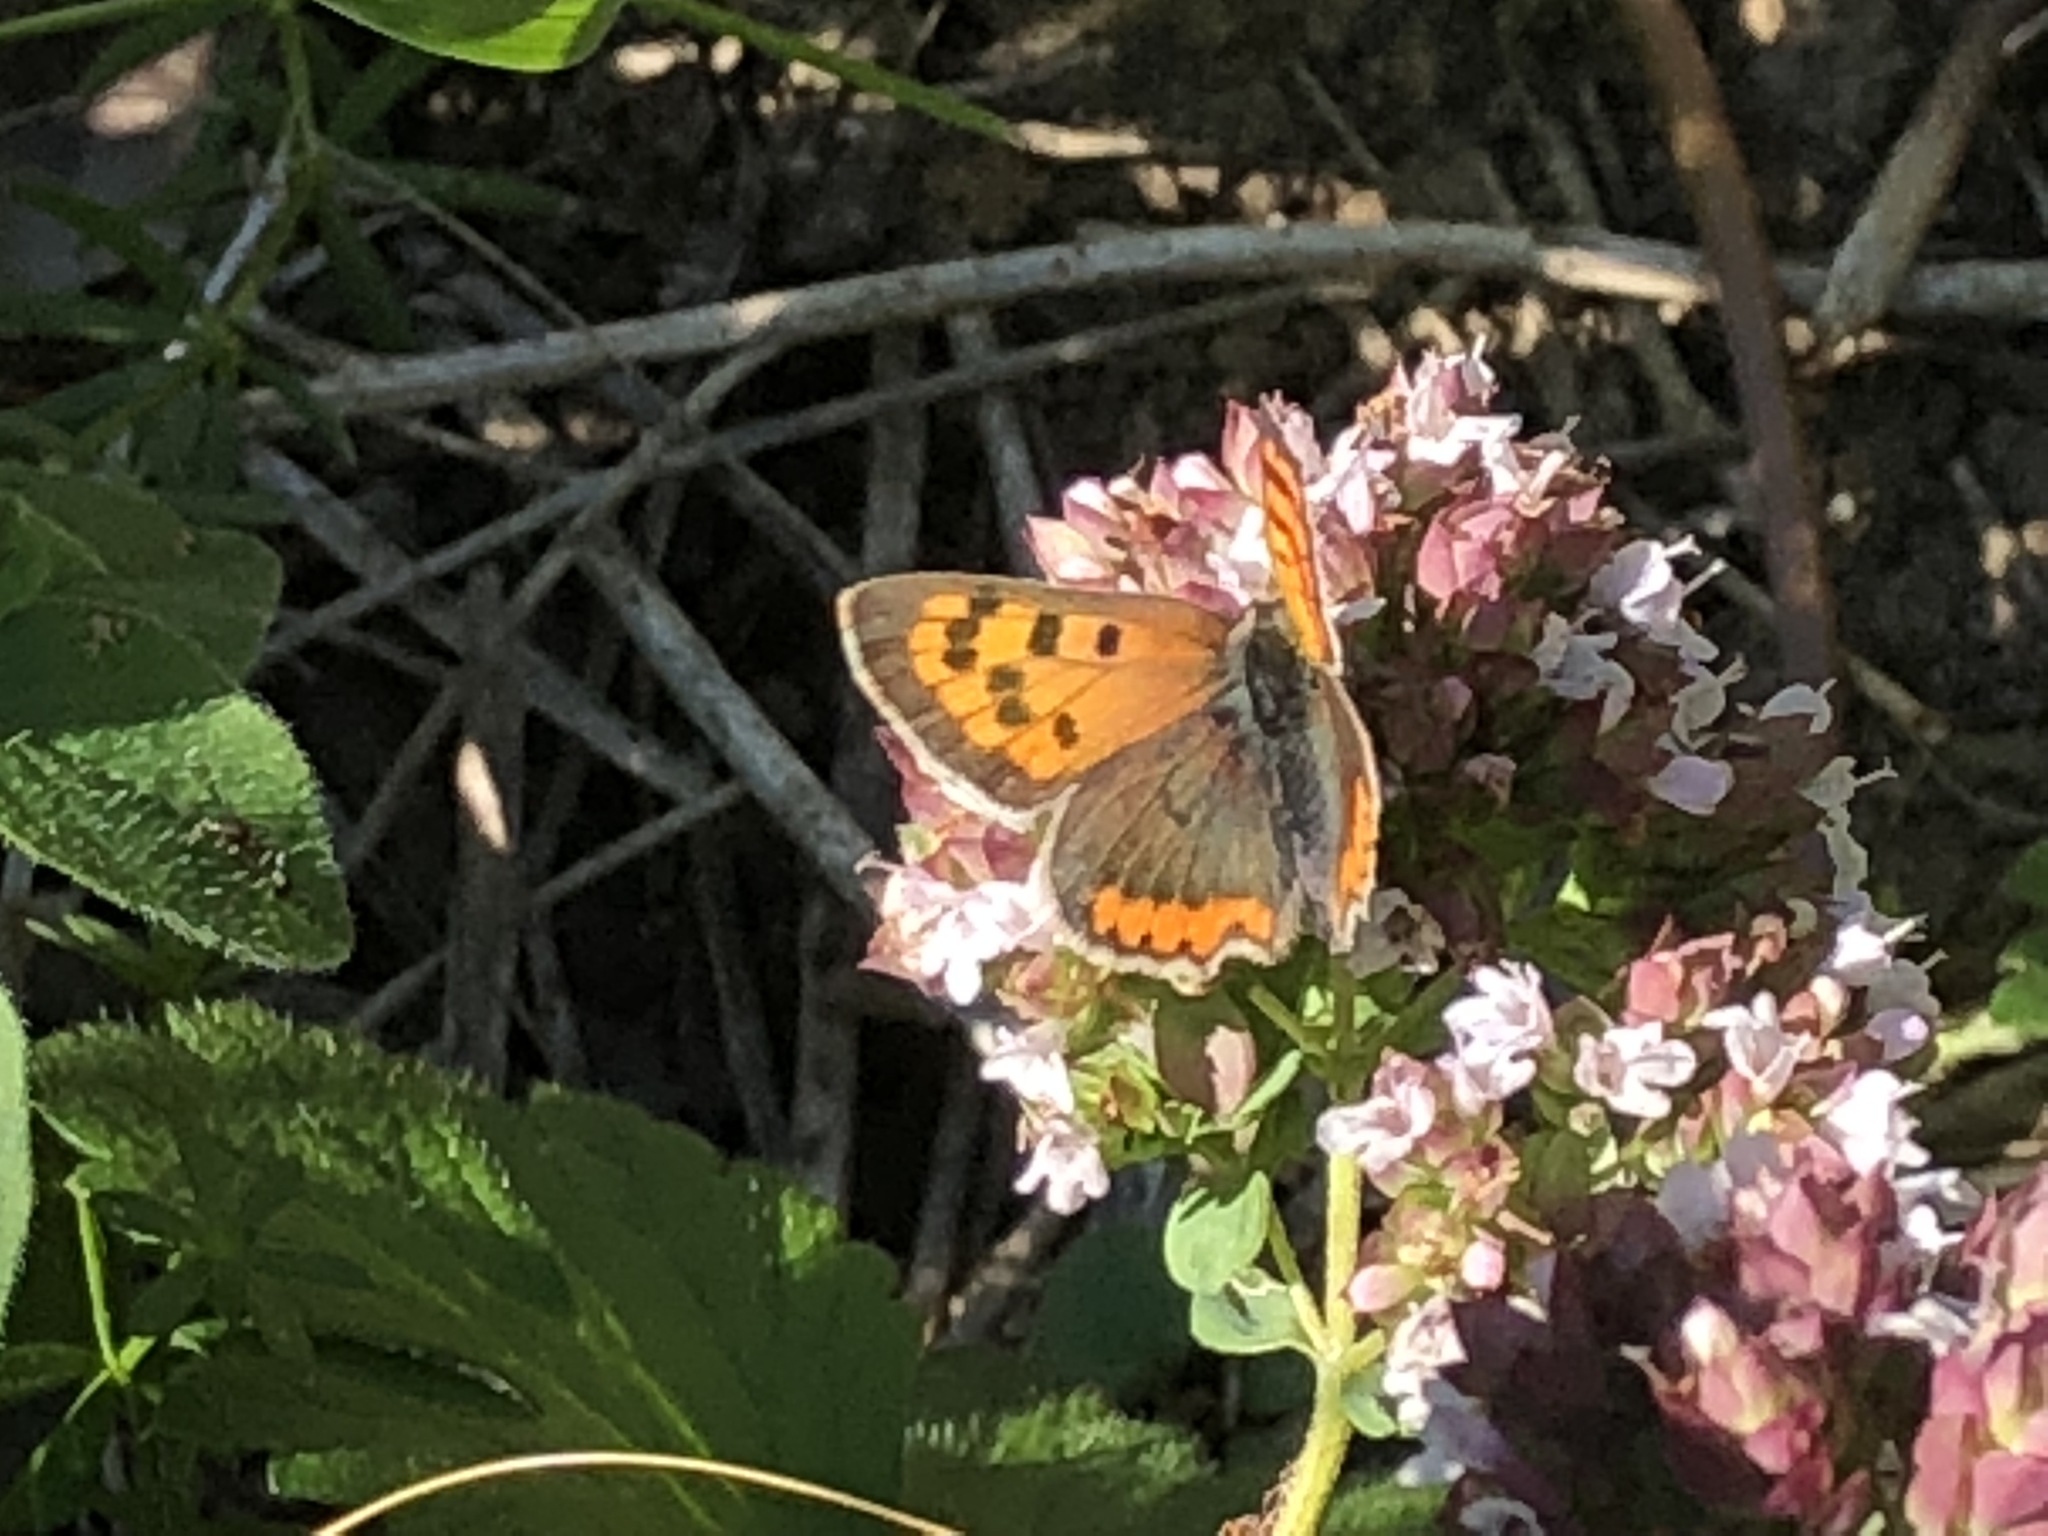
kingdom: Animalia
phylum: Arthropoda
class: Insecta
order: Lepidoptera
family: Lycaenidae
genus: Lycaena
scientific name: Lycaena phlaeas
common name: Small copper
